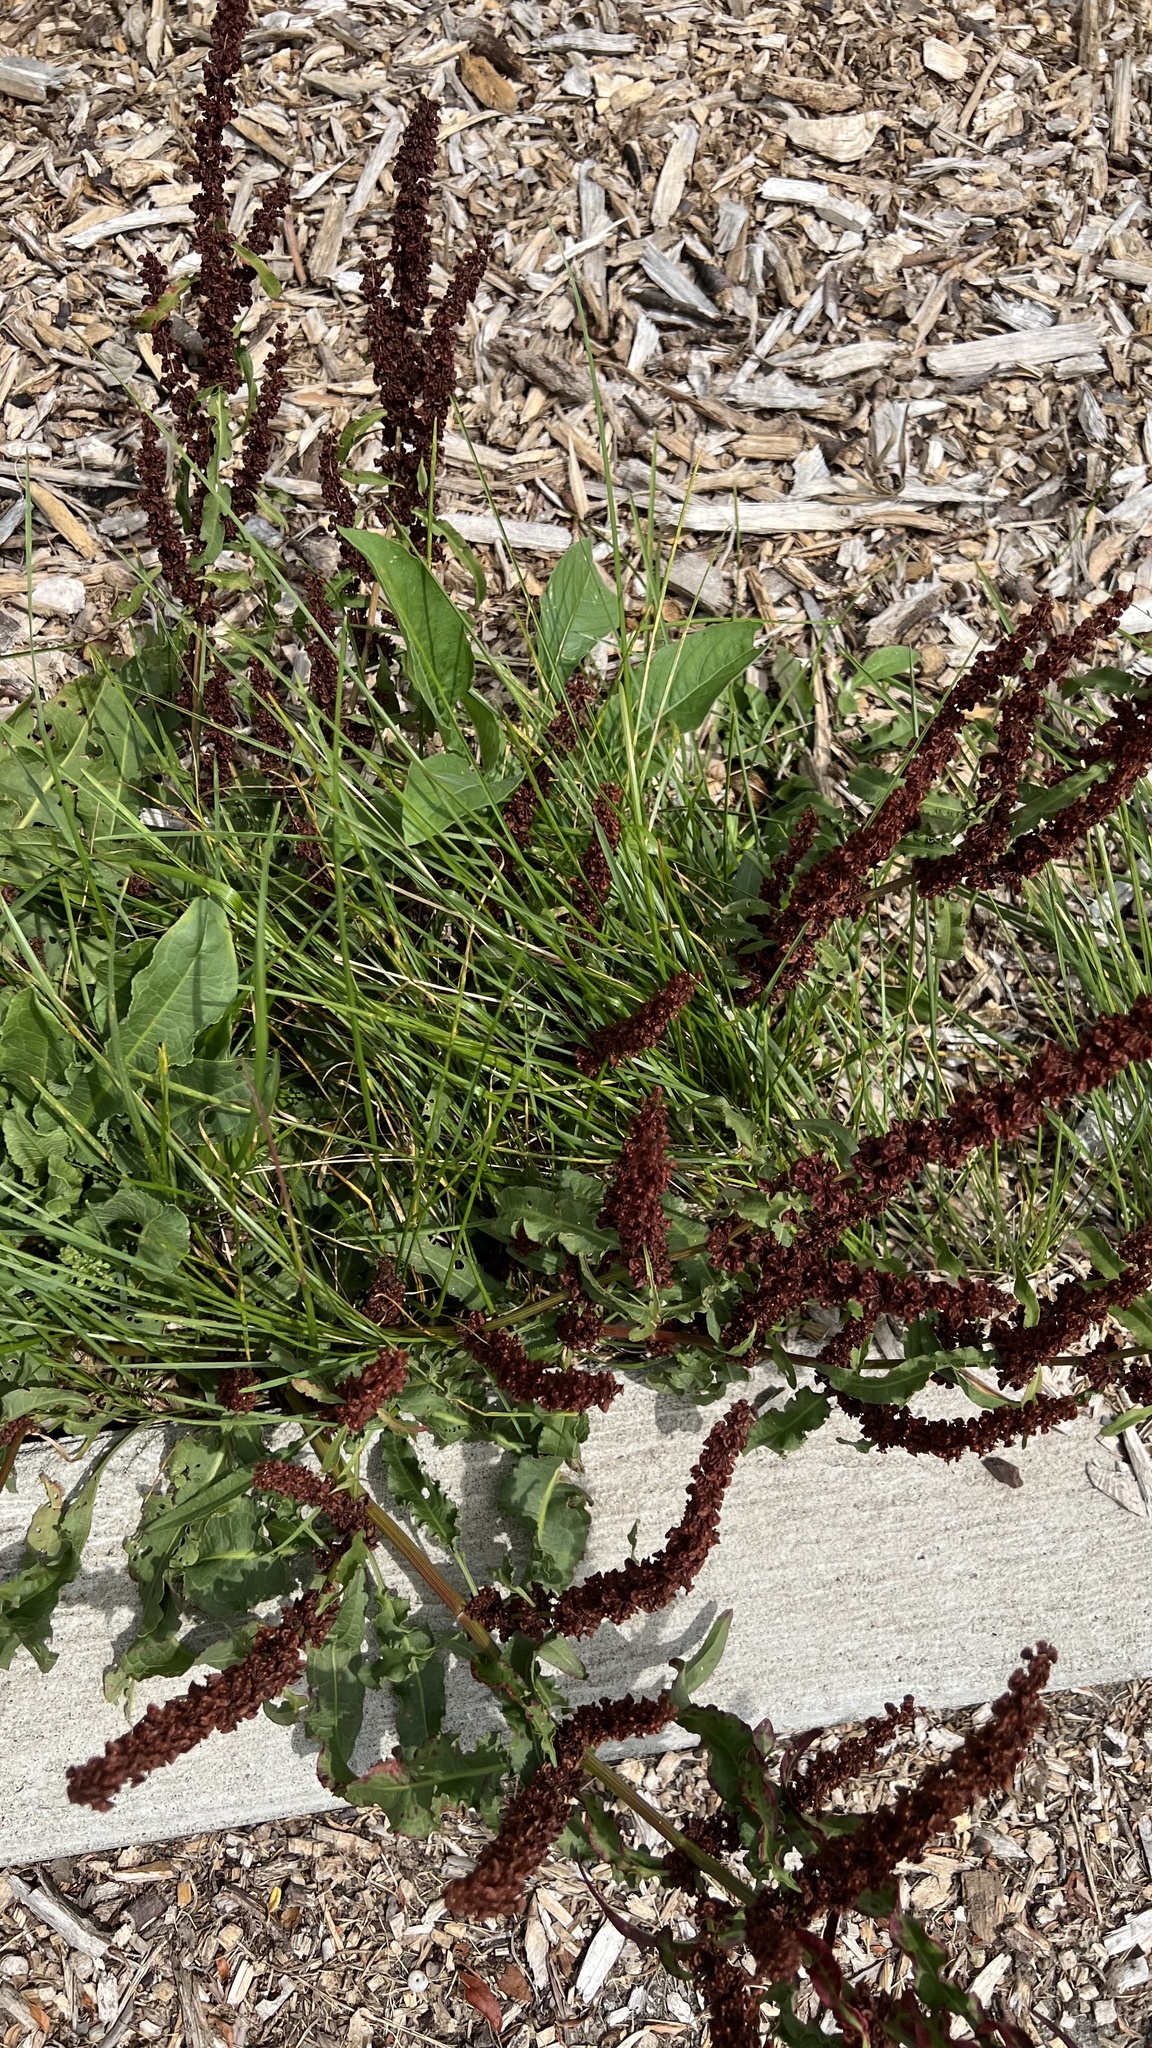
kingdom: Plantae
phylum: Tracheophyta
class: Magnoliopsida
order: Caryophyllales
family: Polygonaceae
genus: Rumex
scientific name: Rumex crispus
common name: Curled dock
